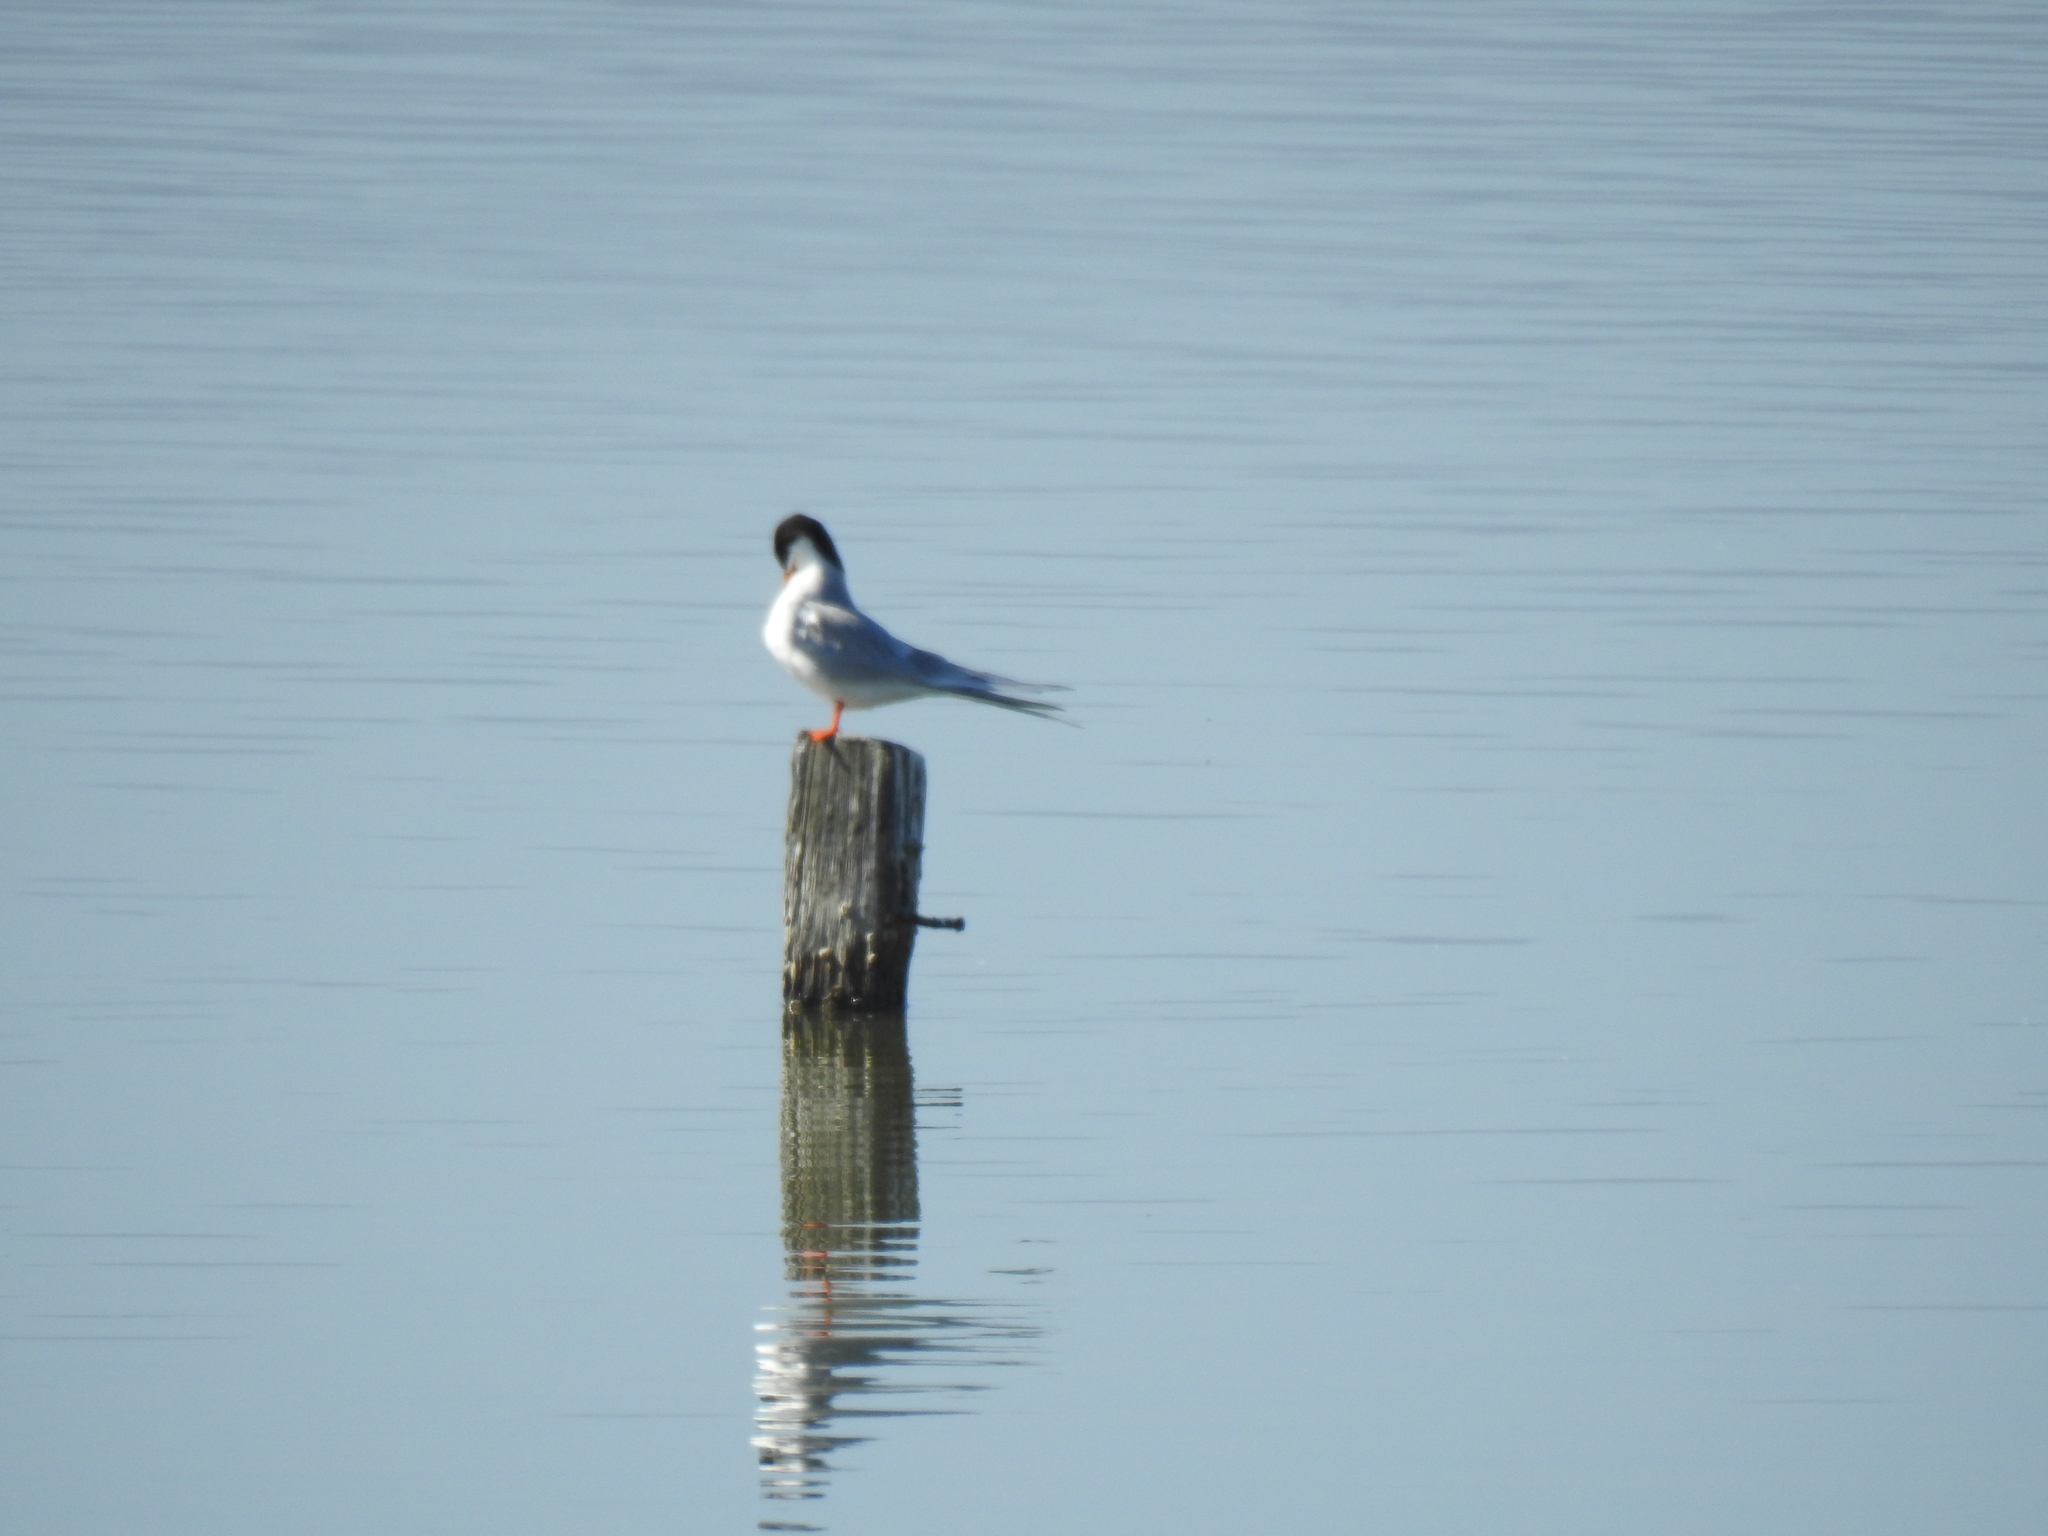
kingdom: Animalia
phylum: Chordata
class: Aves
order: Charadriiformes
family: Laridae
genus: Sterna
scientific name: Sterna forsteri
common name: Forster's tern
